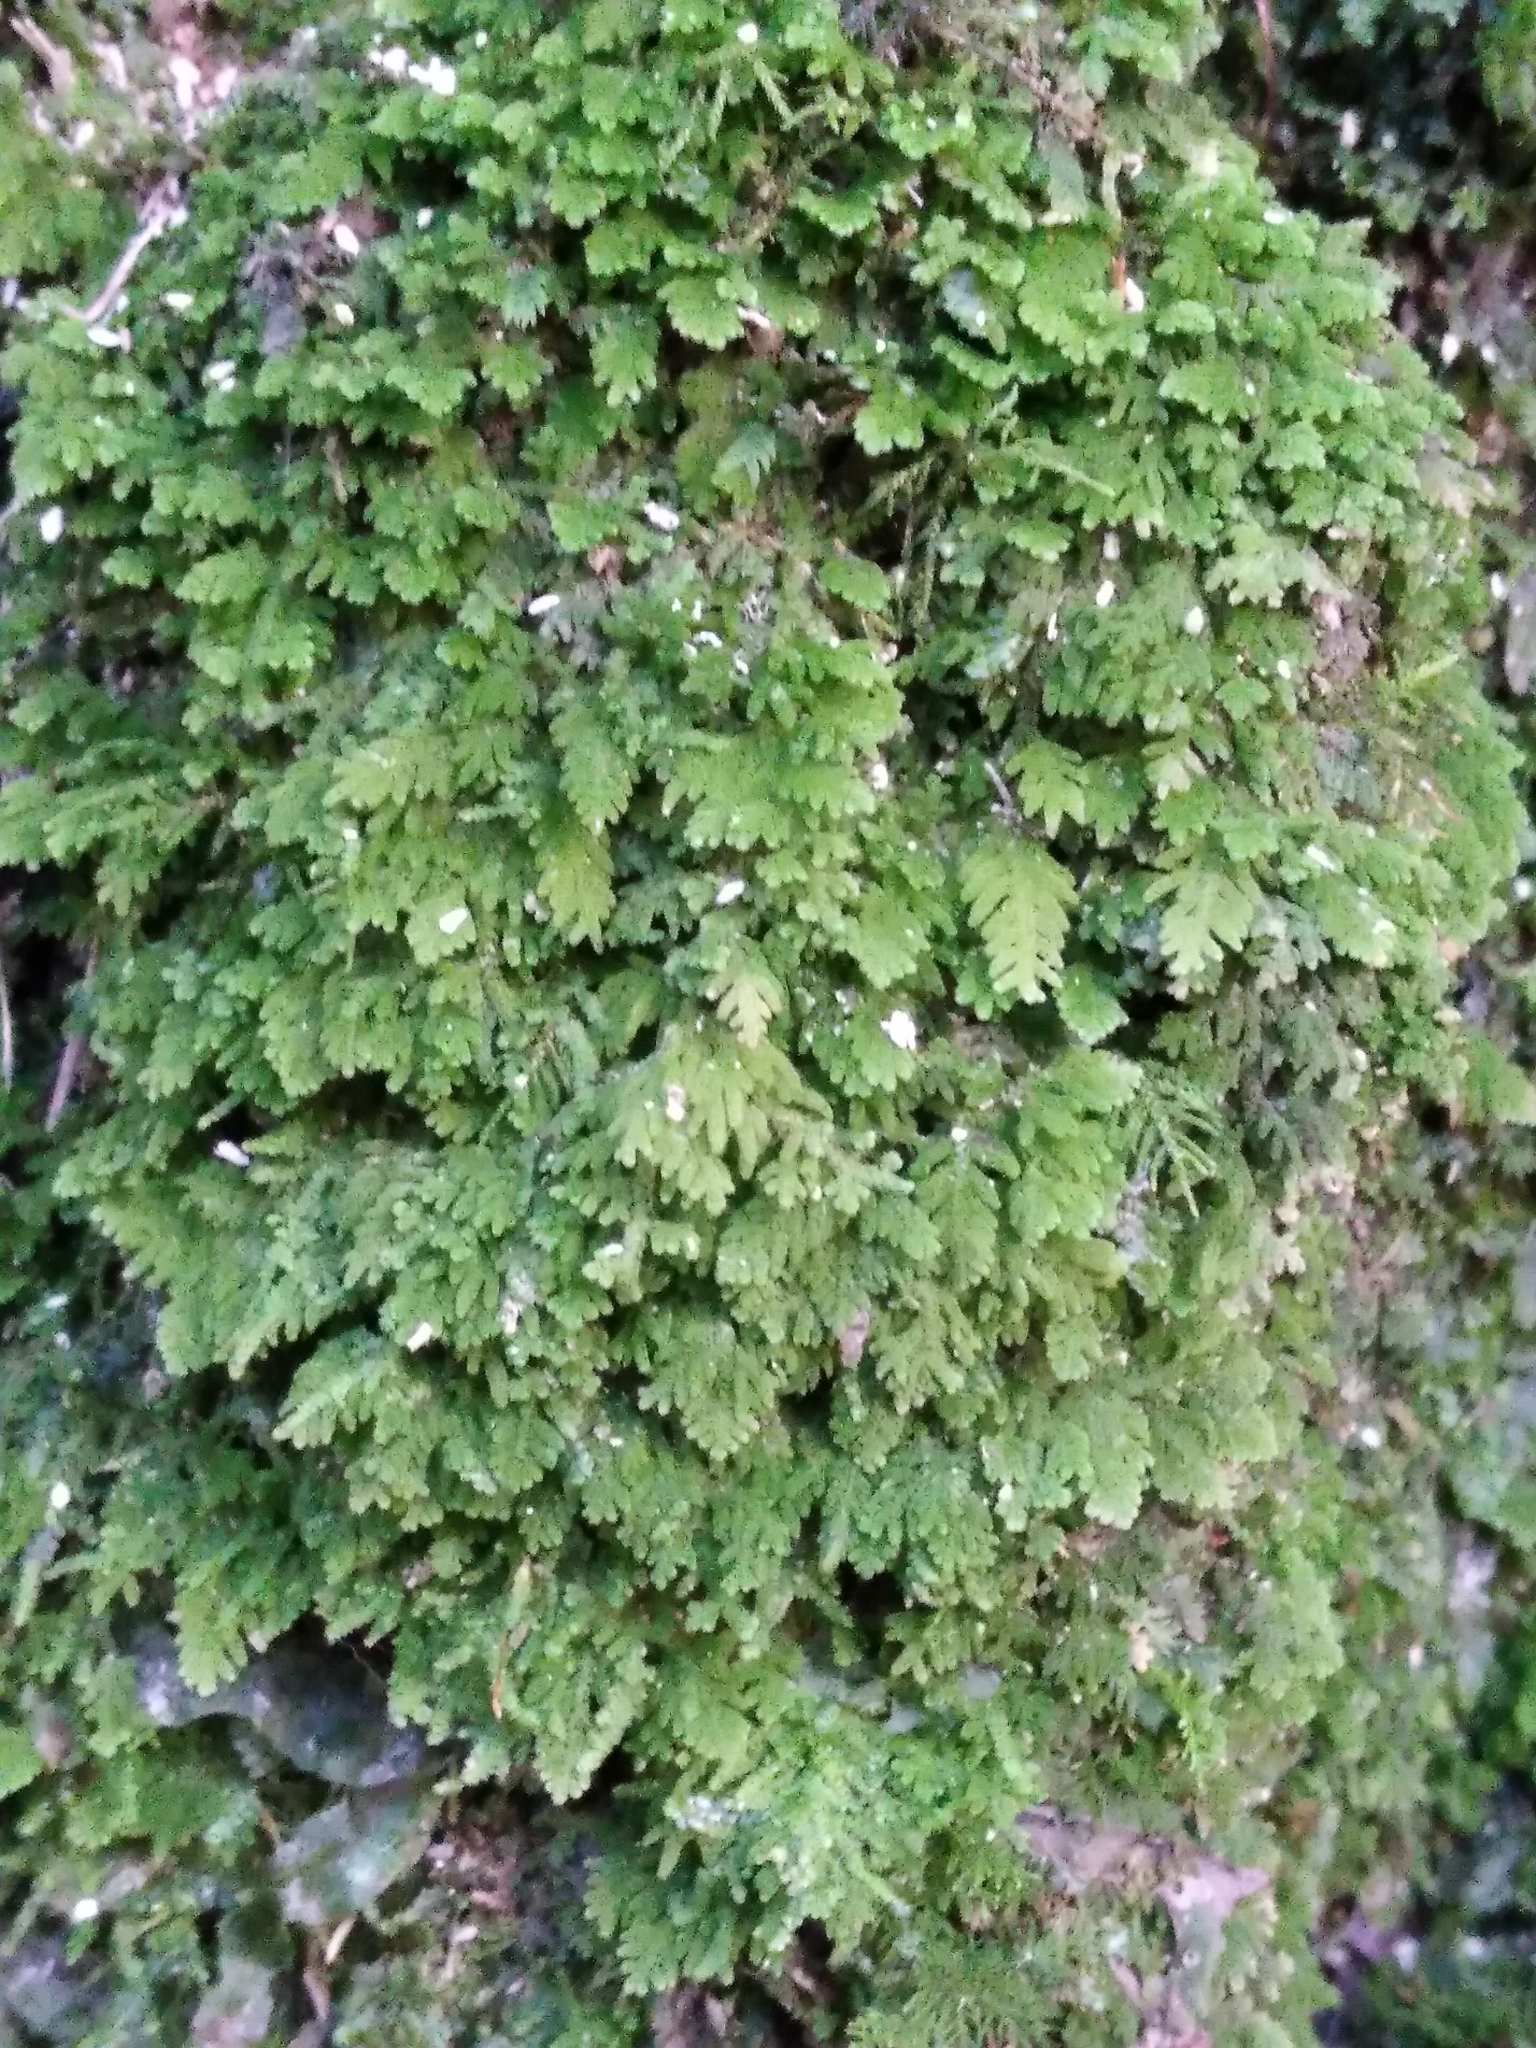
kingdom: Plantae
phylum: Marchantiophyta
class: Jungermanniopsida
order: Jungermanniales
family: Trichocoleaceae
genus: Trichocolea
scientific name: Trichocolea hatcheri
